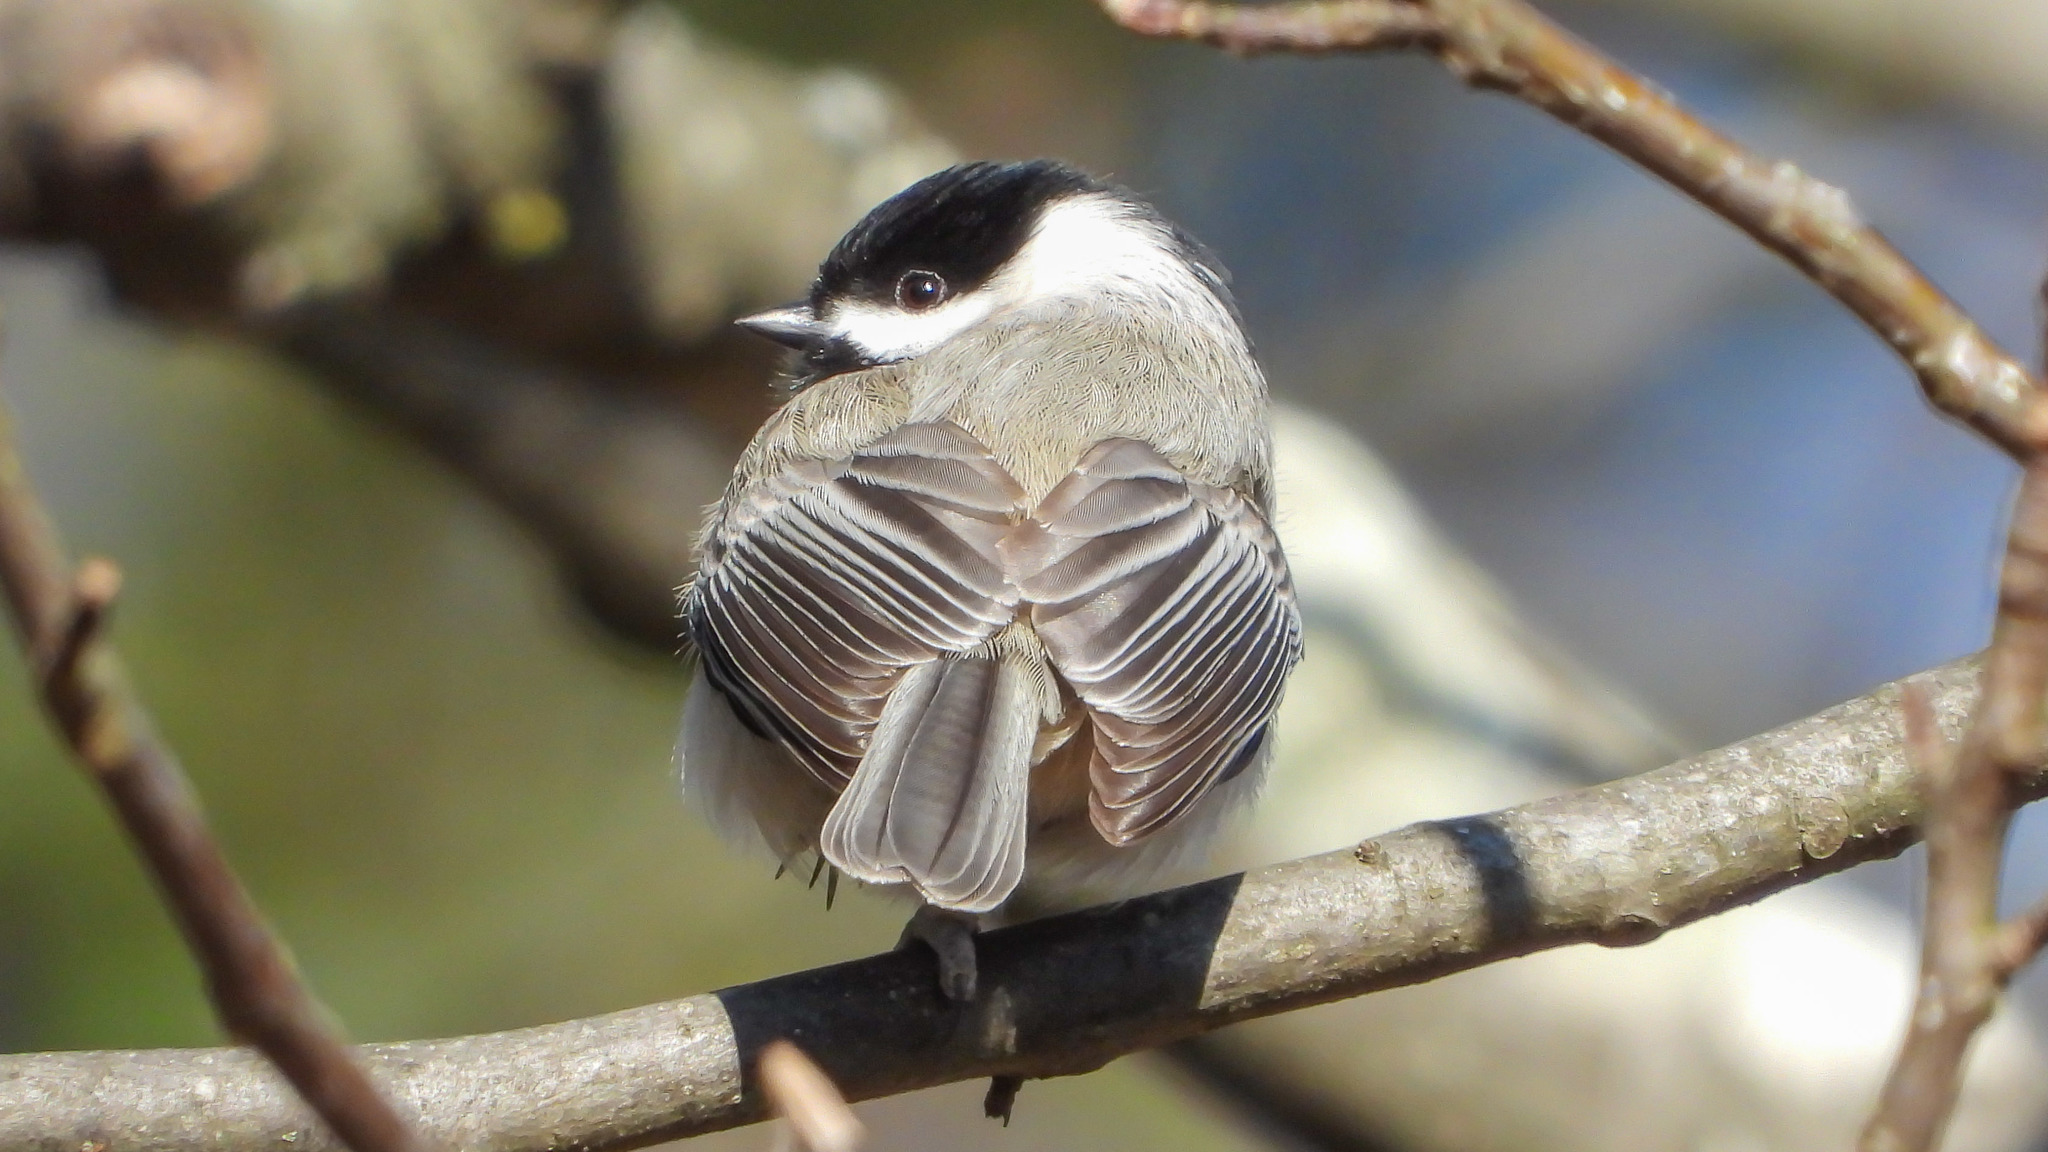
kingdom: Animalia
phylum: Chordata
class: Aves
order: Passeriformes
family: Paridae
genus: Poecile
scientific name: Poecile carolinensis
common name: Carolina chickadee
